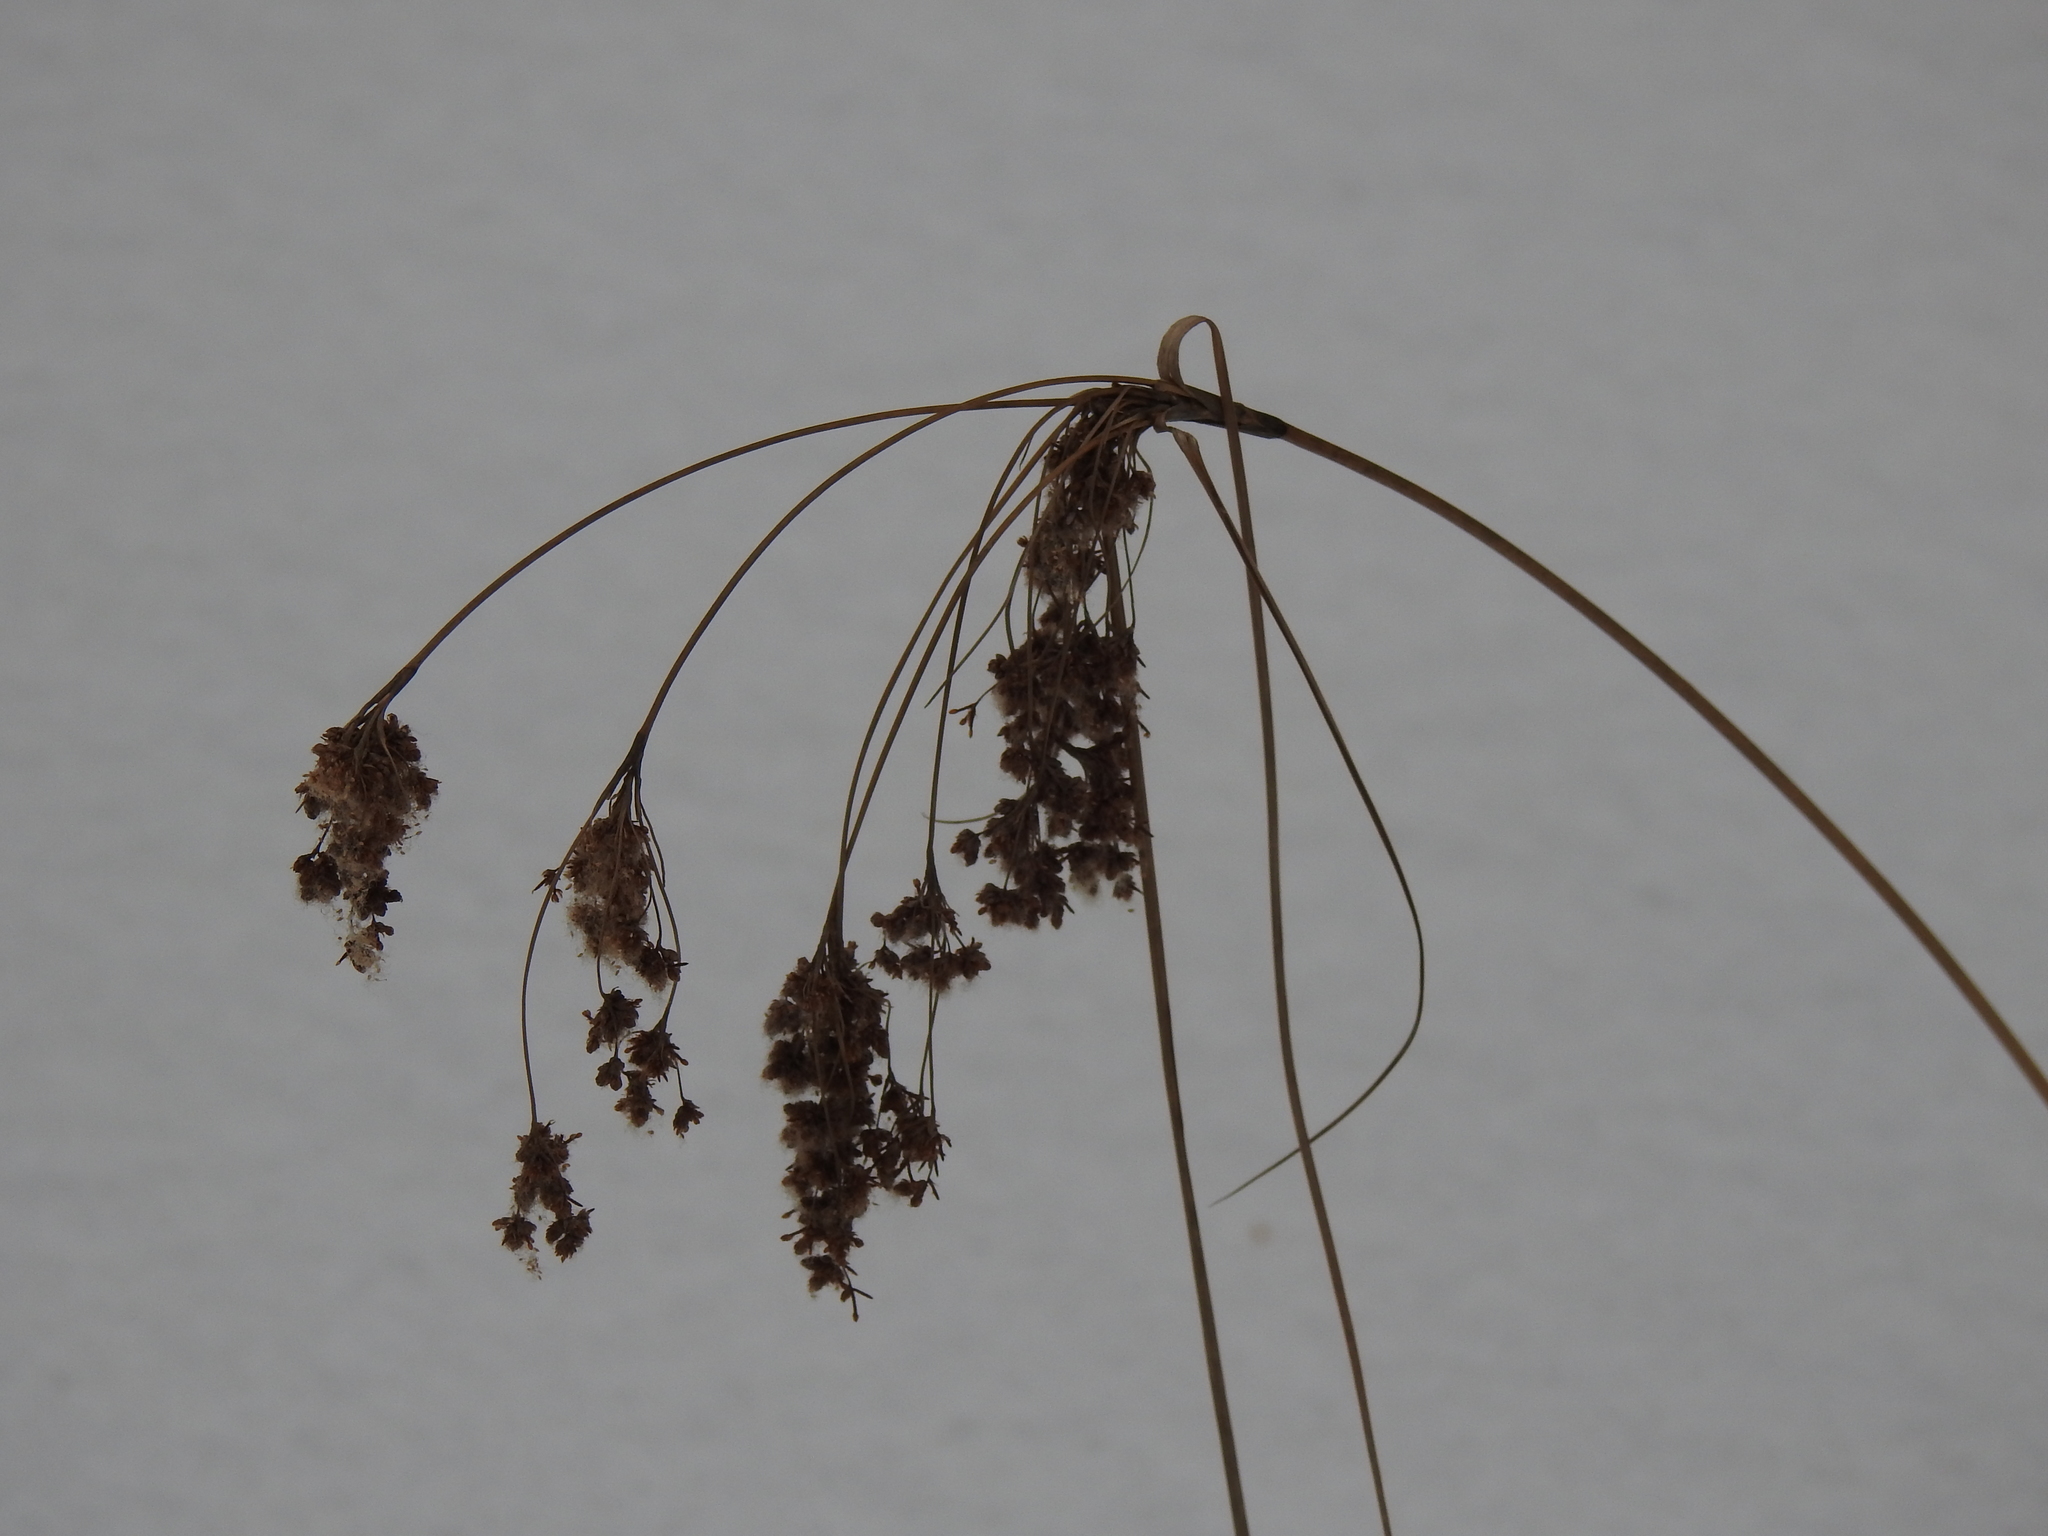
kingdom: Plantae
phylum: Tracheophyta
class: Liliopsida
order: Poales
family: Cyperaceae
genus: Scirpus
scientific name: Scirpus cyperinus
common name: Black-sheathed bulrush
